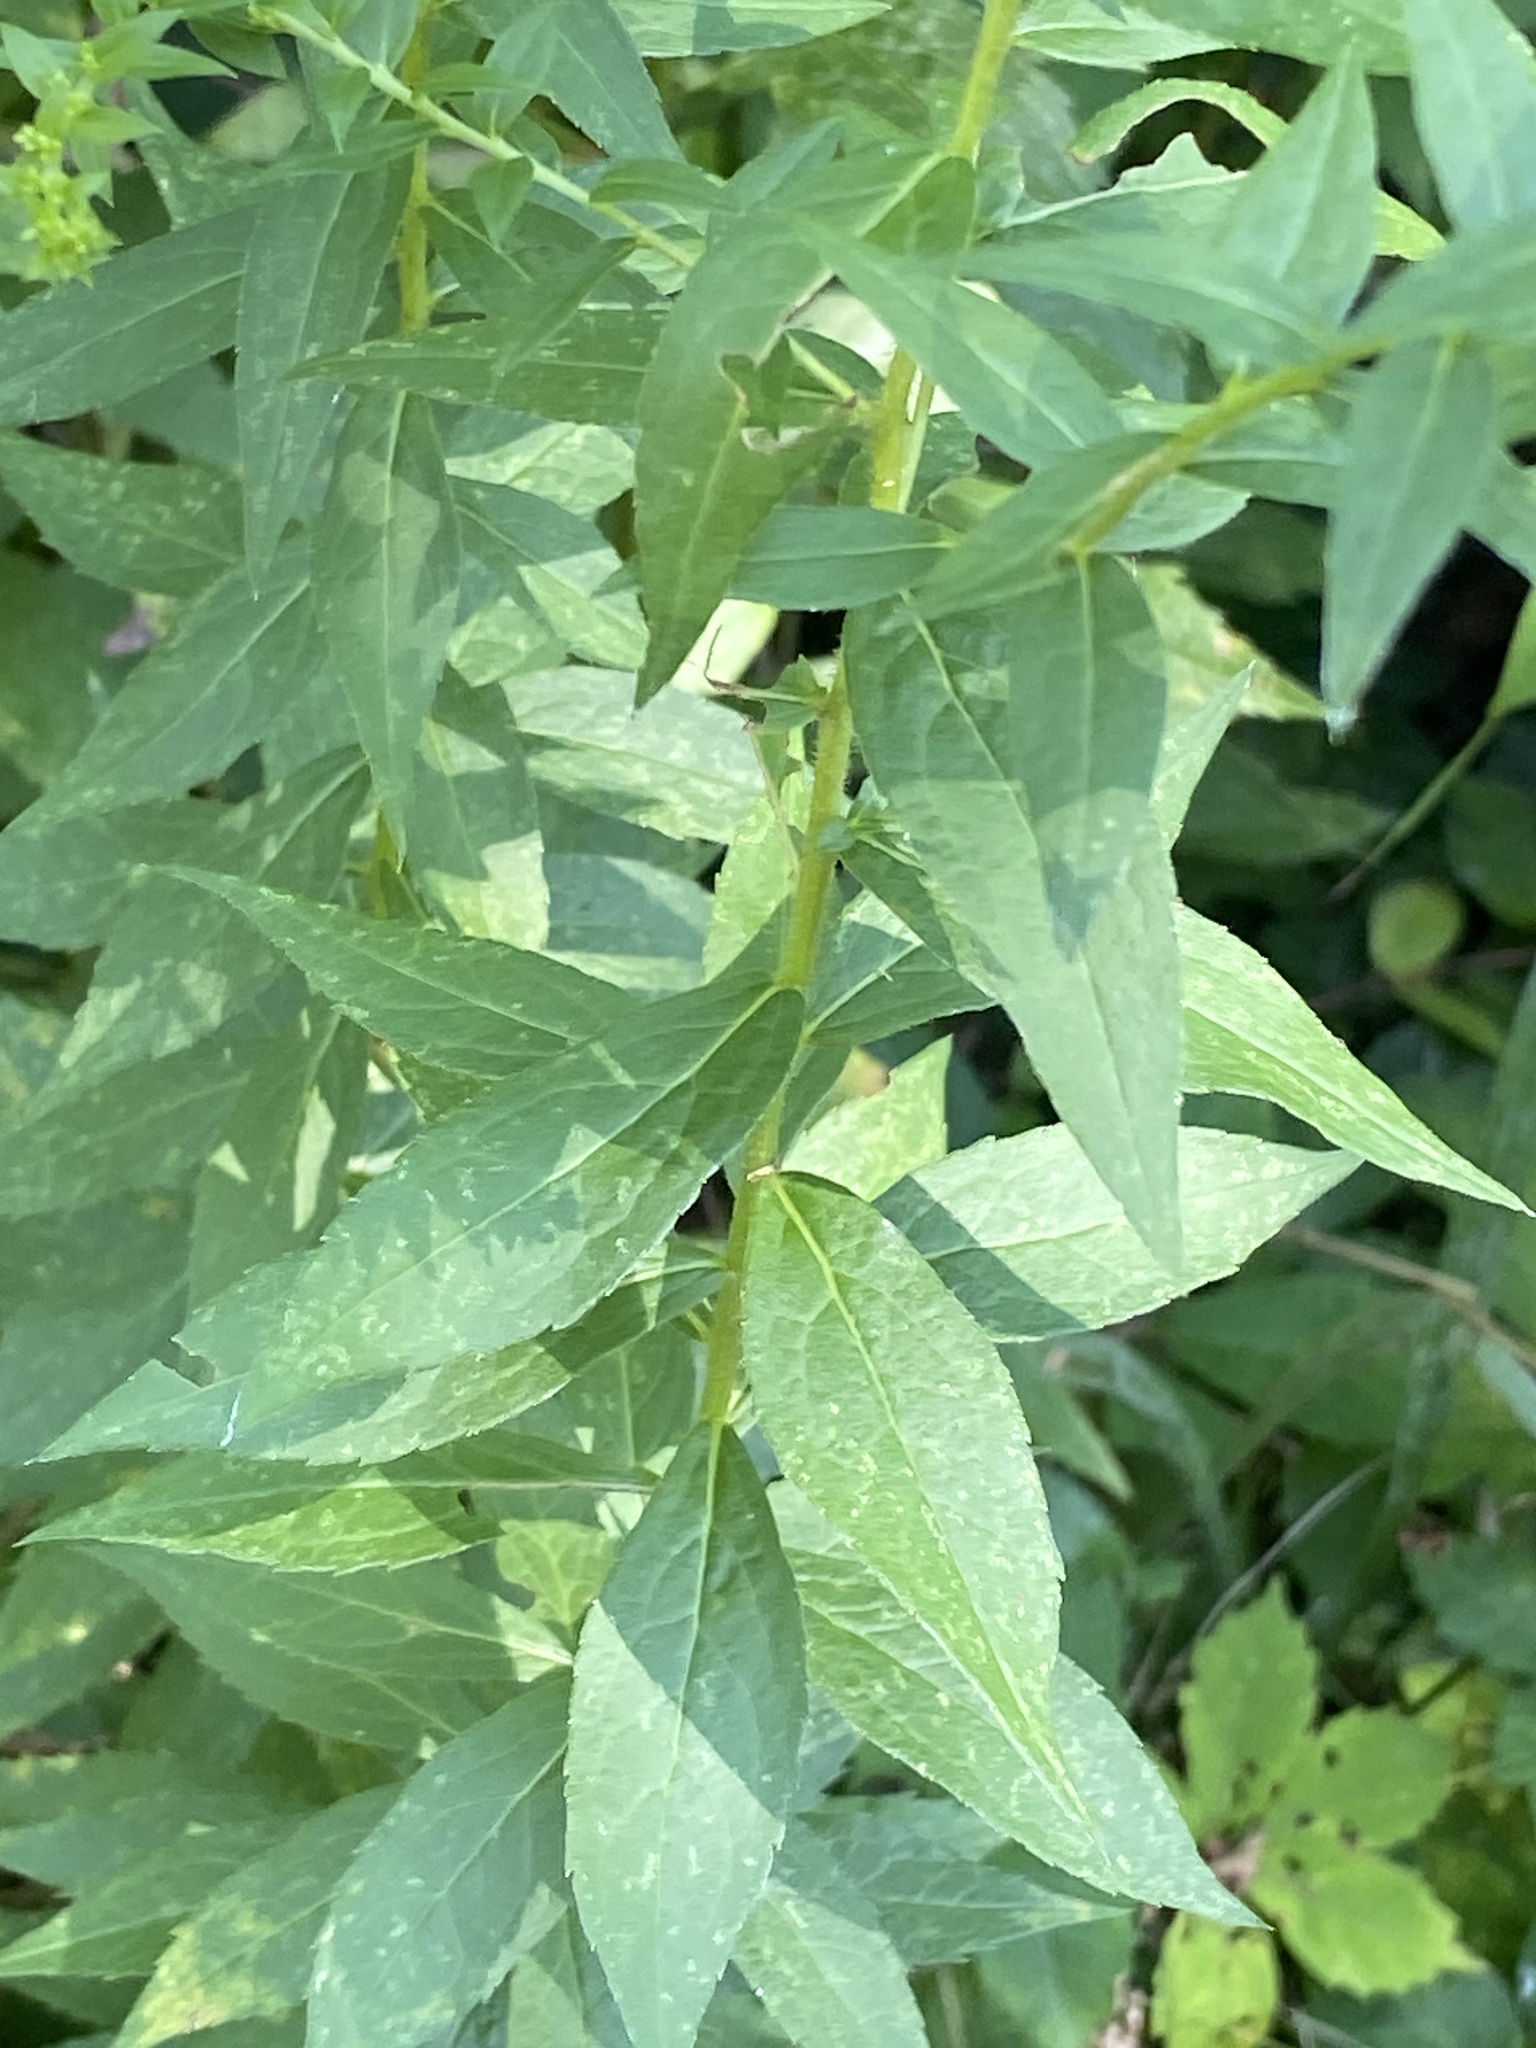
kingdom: Plantae
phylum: Tracheophyta
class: Magnoliopsida
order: Asterales
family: Asteraceae
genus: Solidago
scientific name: Solidago rugosa
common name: Rough-stemmed goldenrod
